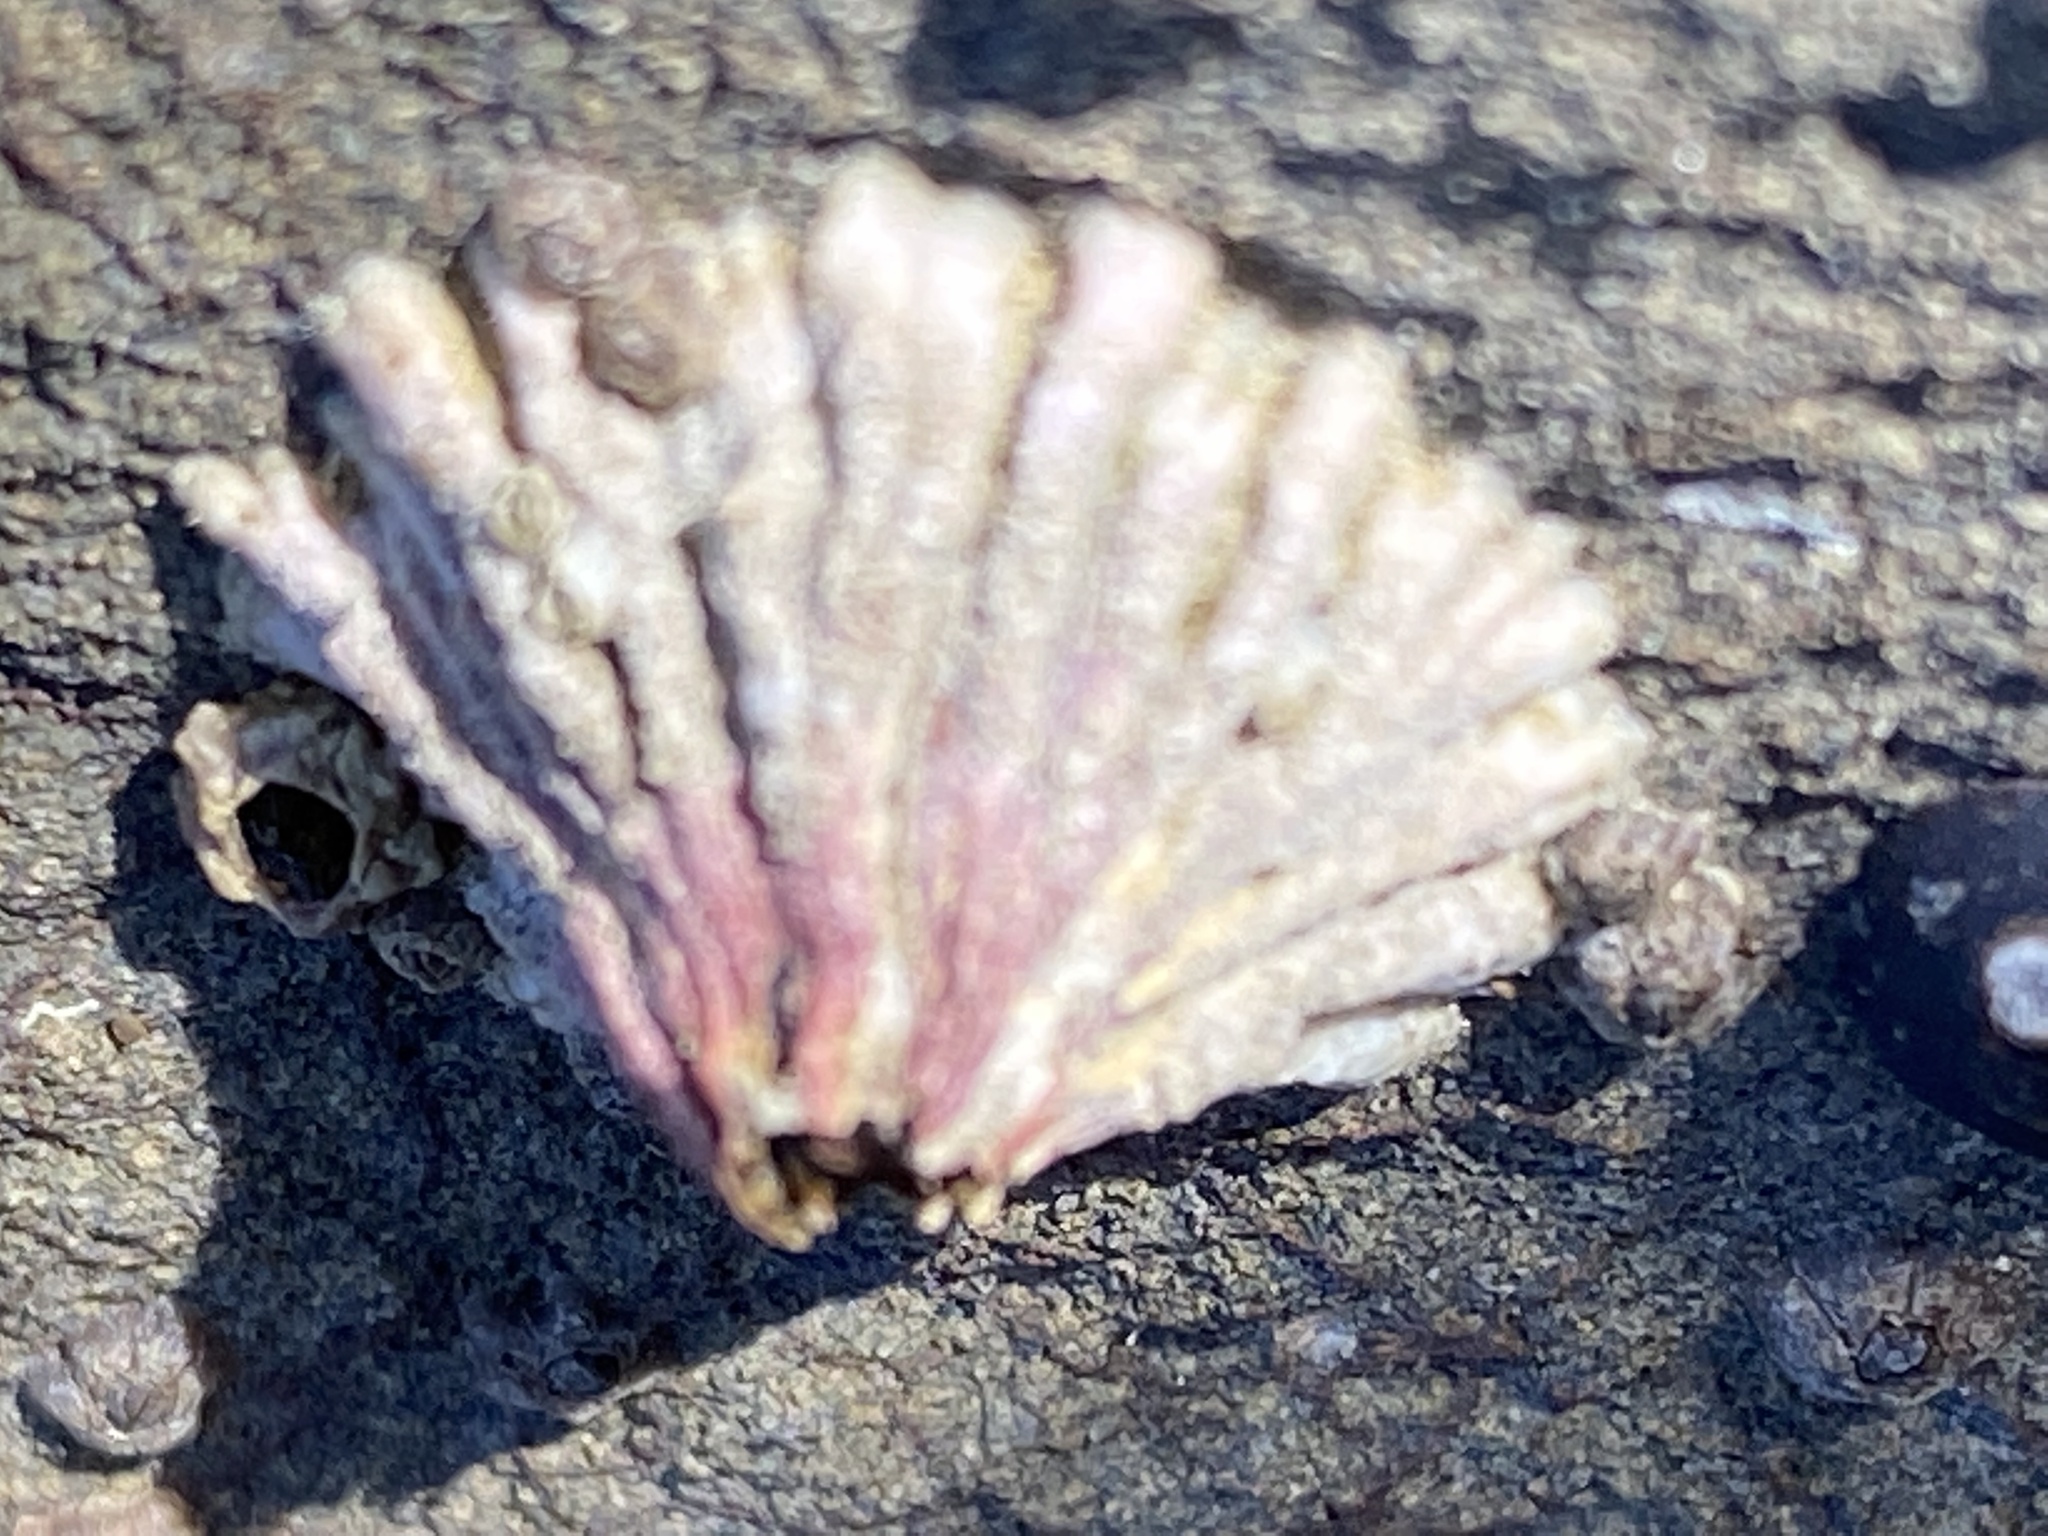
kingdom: Animalia
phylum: Arthropoda
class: Maxillopoda
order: Sessilia
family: Tetraclitidae
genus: Tetraclita
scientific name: Tetraclita rubescens
